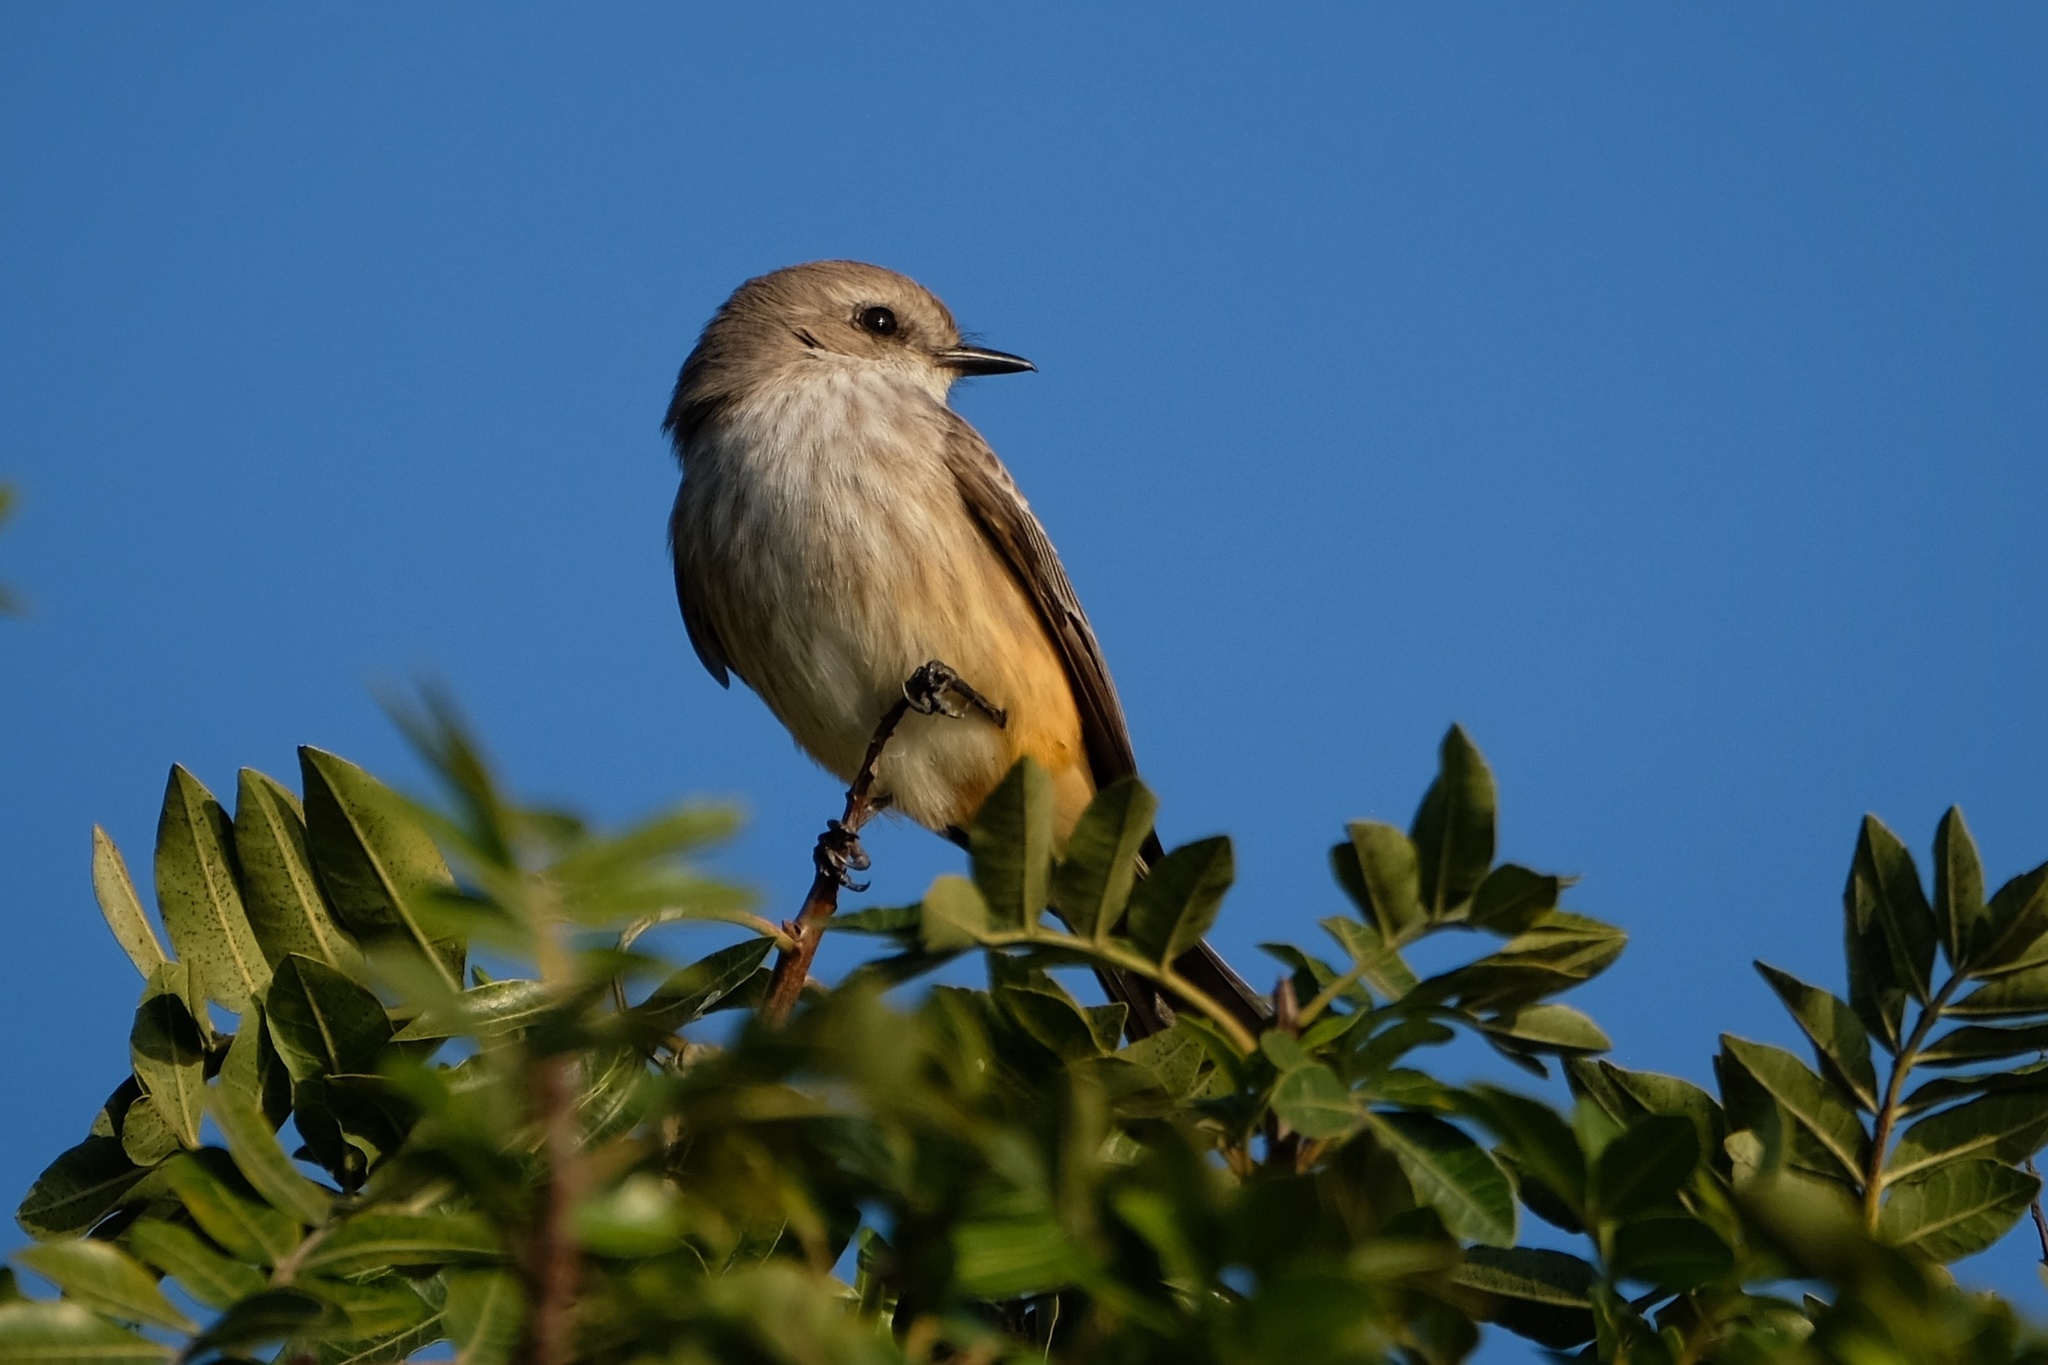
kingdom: Animalia
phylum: Chordata
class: Aves
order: Passeriformes
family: Tyrannidae
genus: Pyrocephalus
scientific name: Pyrocephalus rubinus
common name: Vermilion flycatcher
